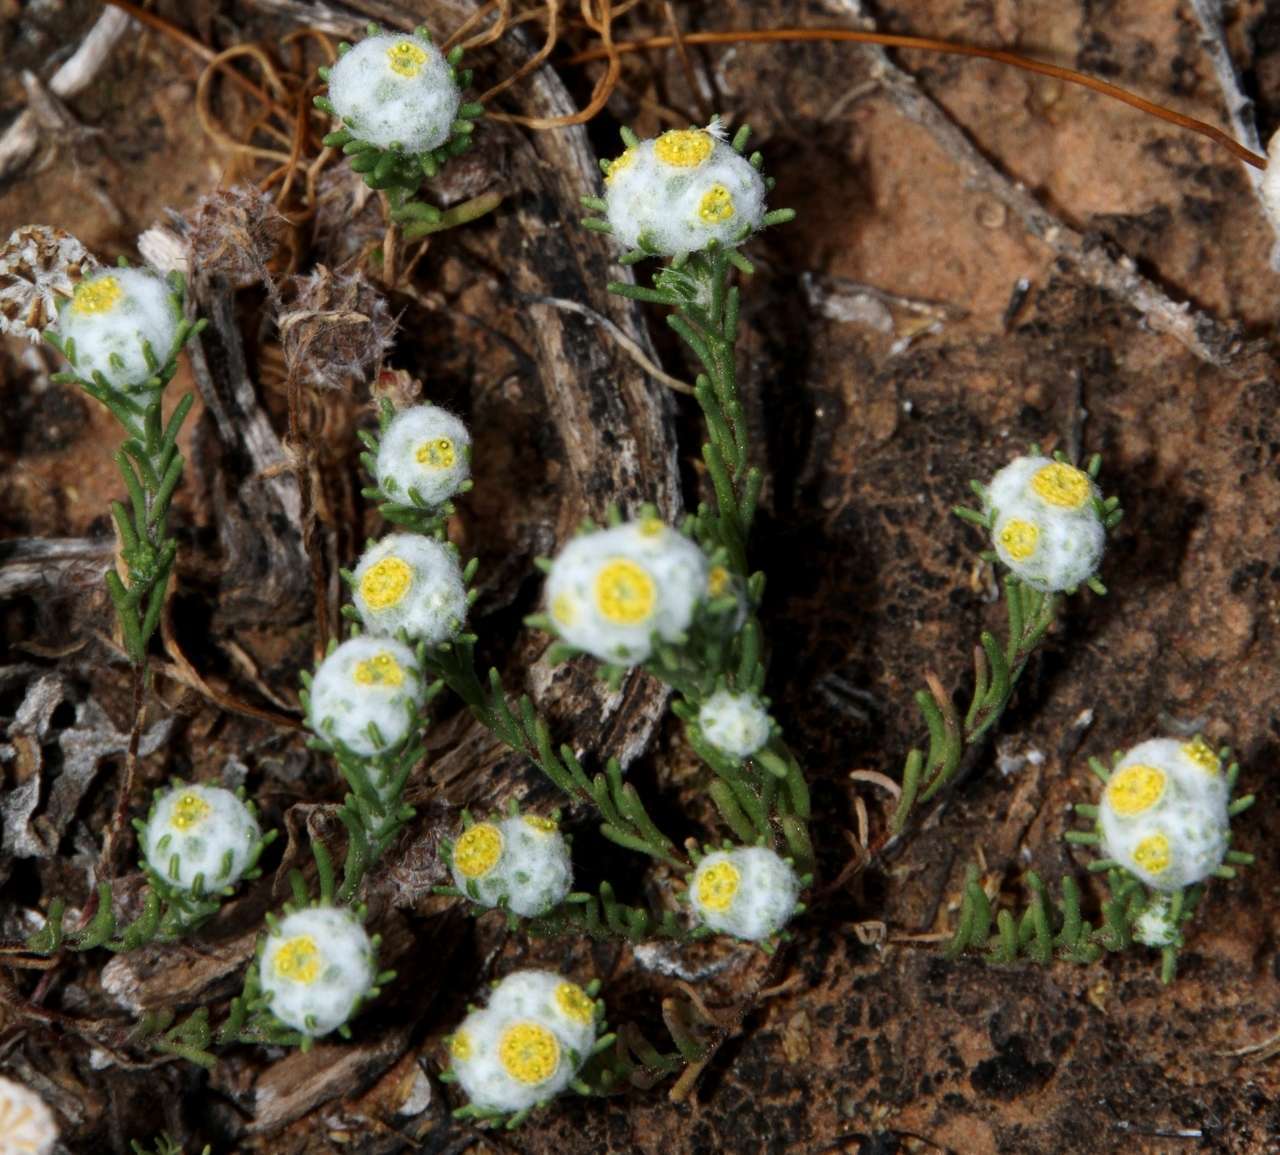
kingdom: Plantae
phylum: Tracheophyta
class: Magnoliopsida
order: Asterales
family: Asteraceae
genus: Eriochlamys
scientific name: Eriochlamys behrii
